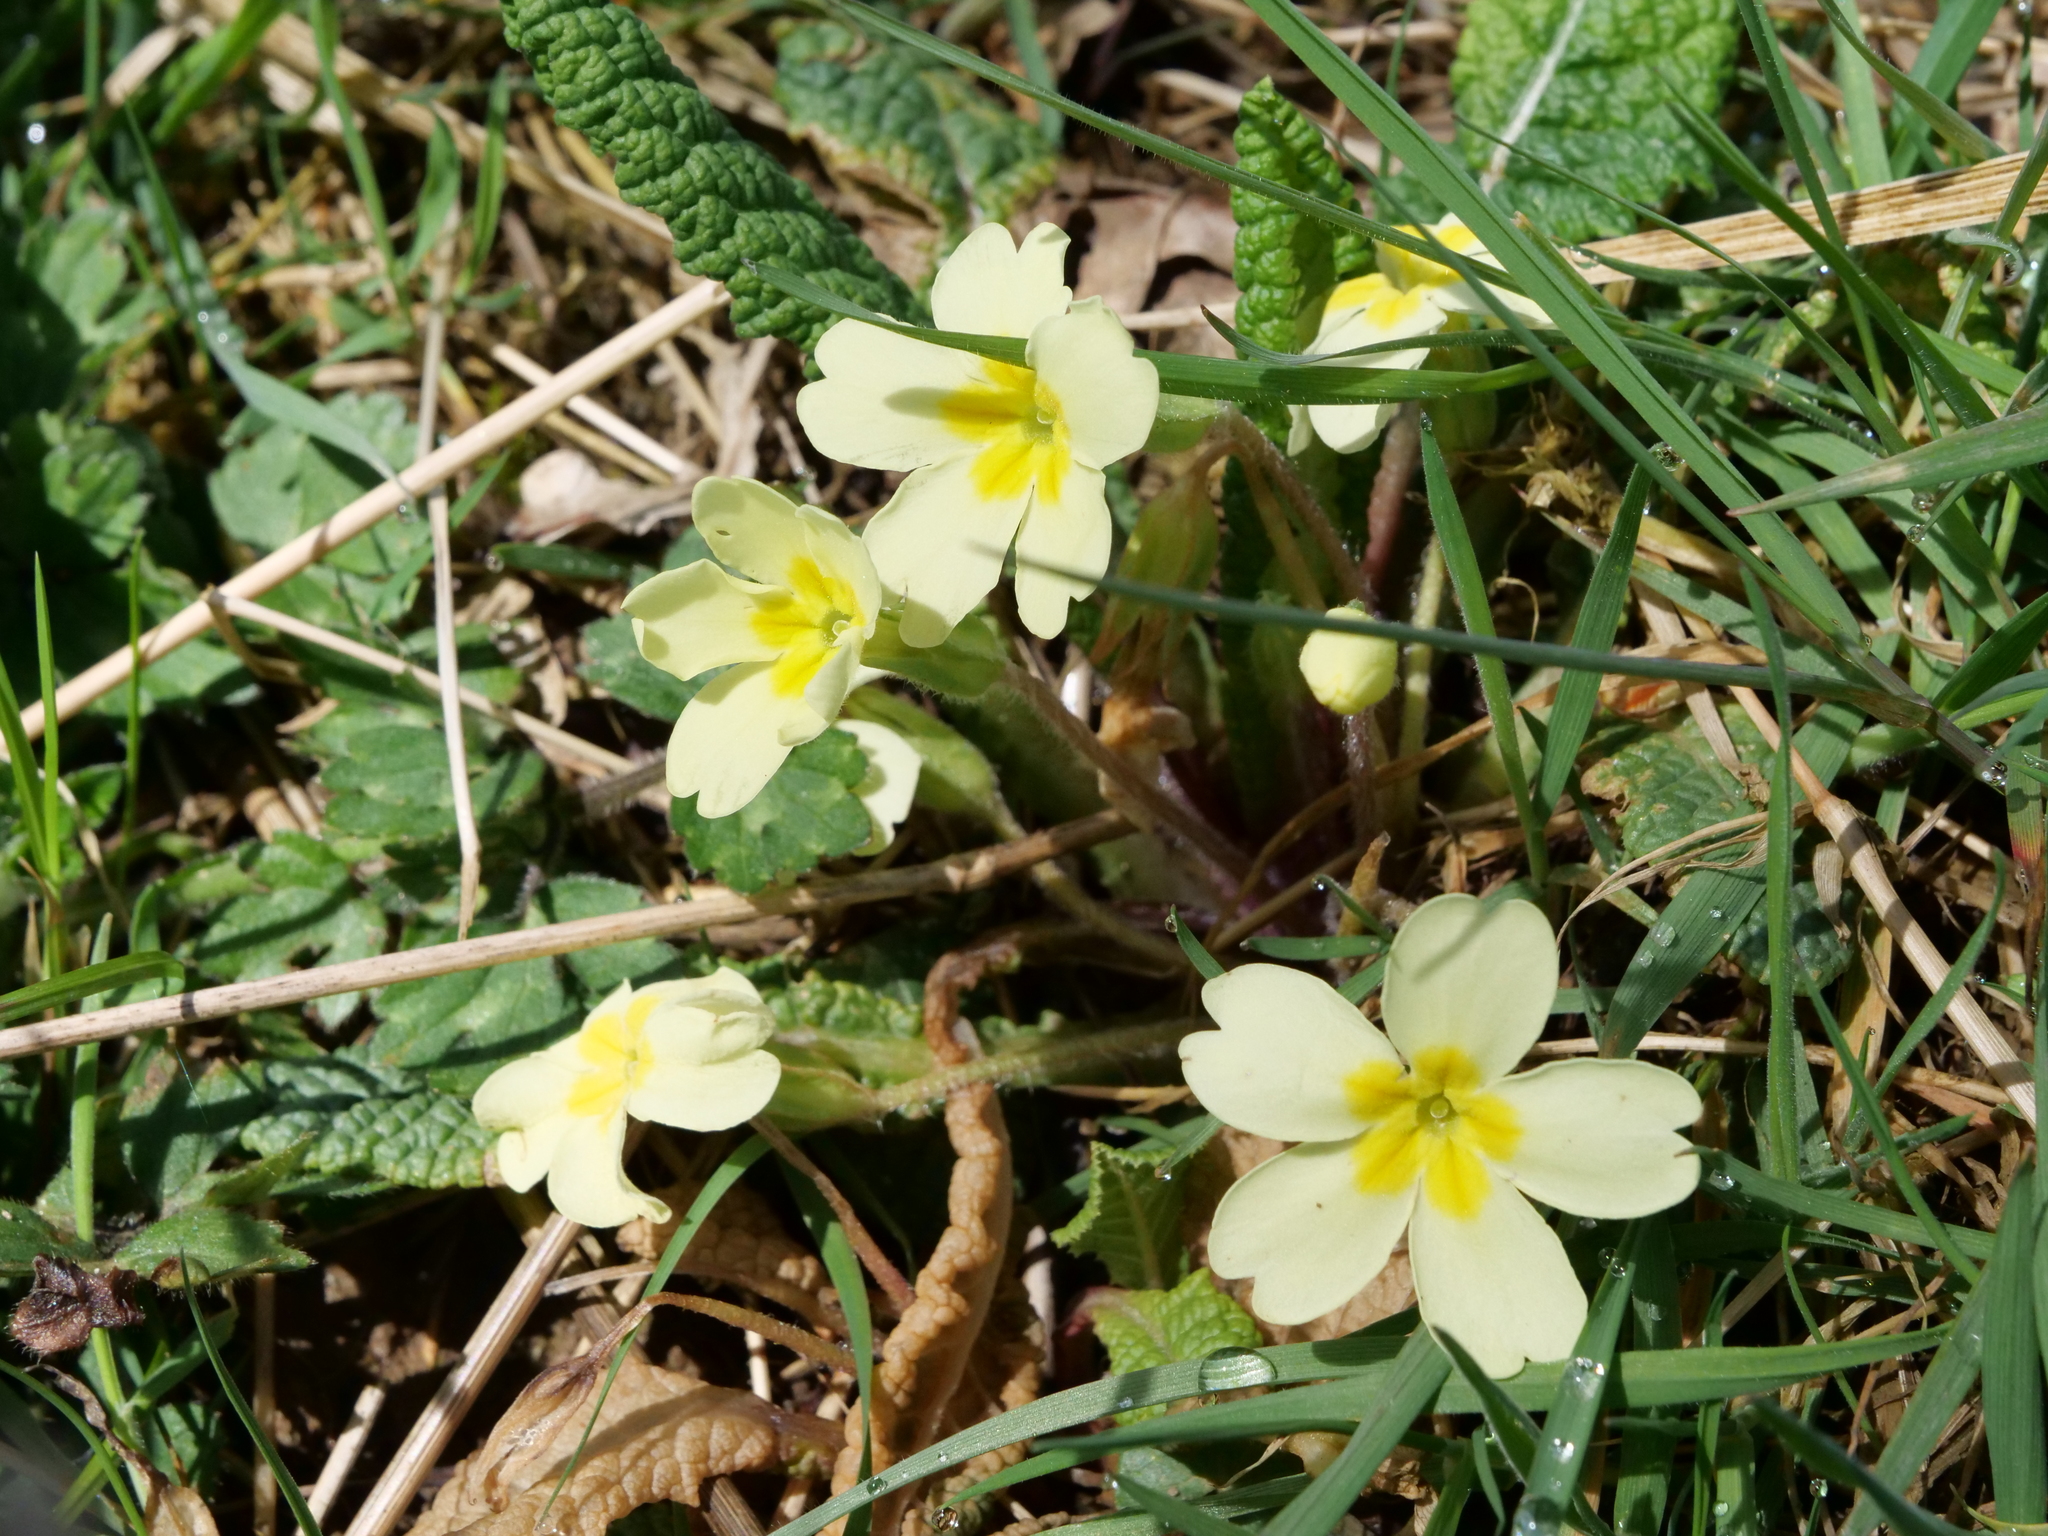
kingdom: Plantae
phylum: Tracheophyta
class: Magnoliopsida
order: Ericales
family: Primulaceae
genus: Primula
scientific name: Primula vulgaris
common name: Primrose
